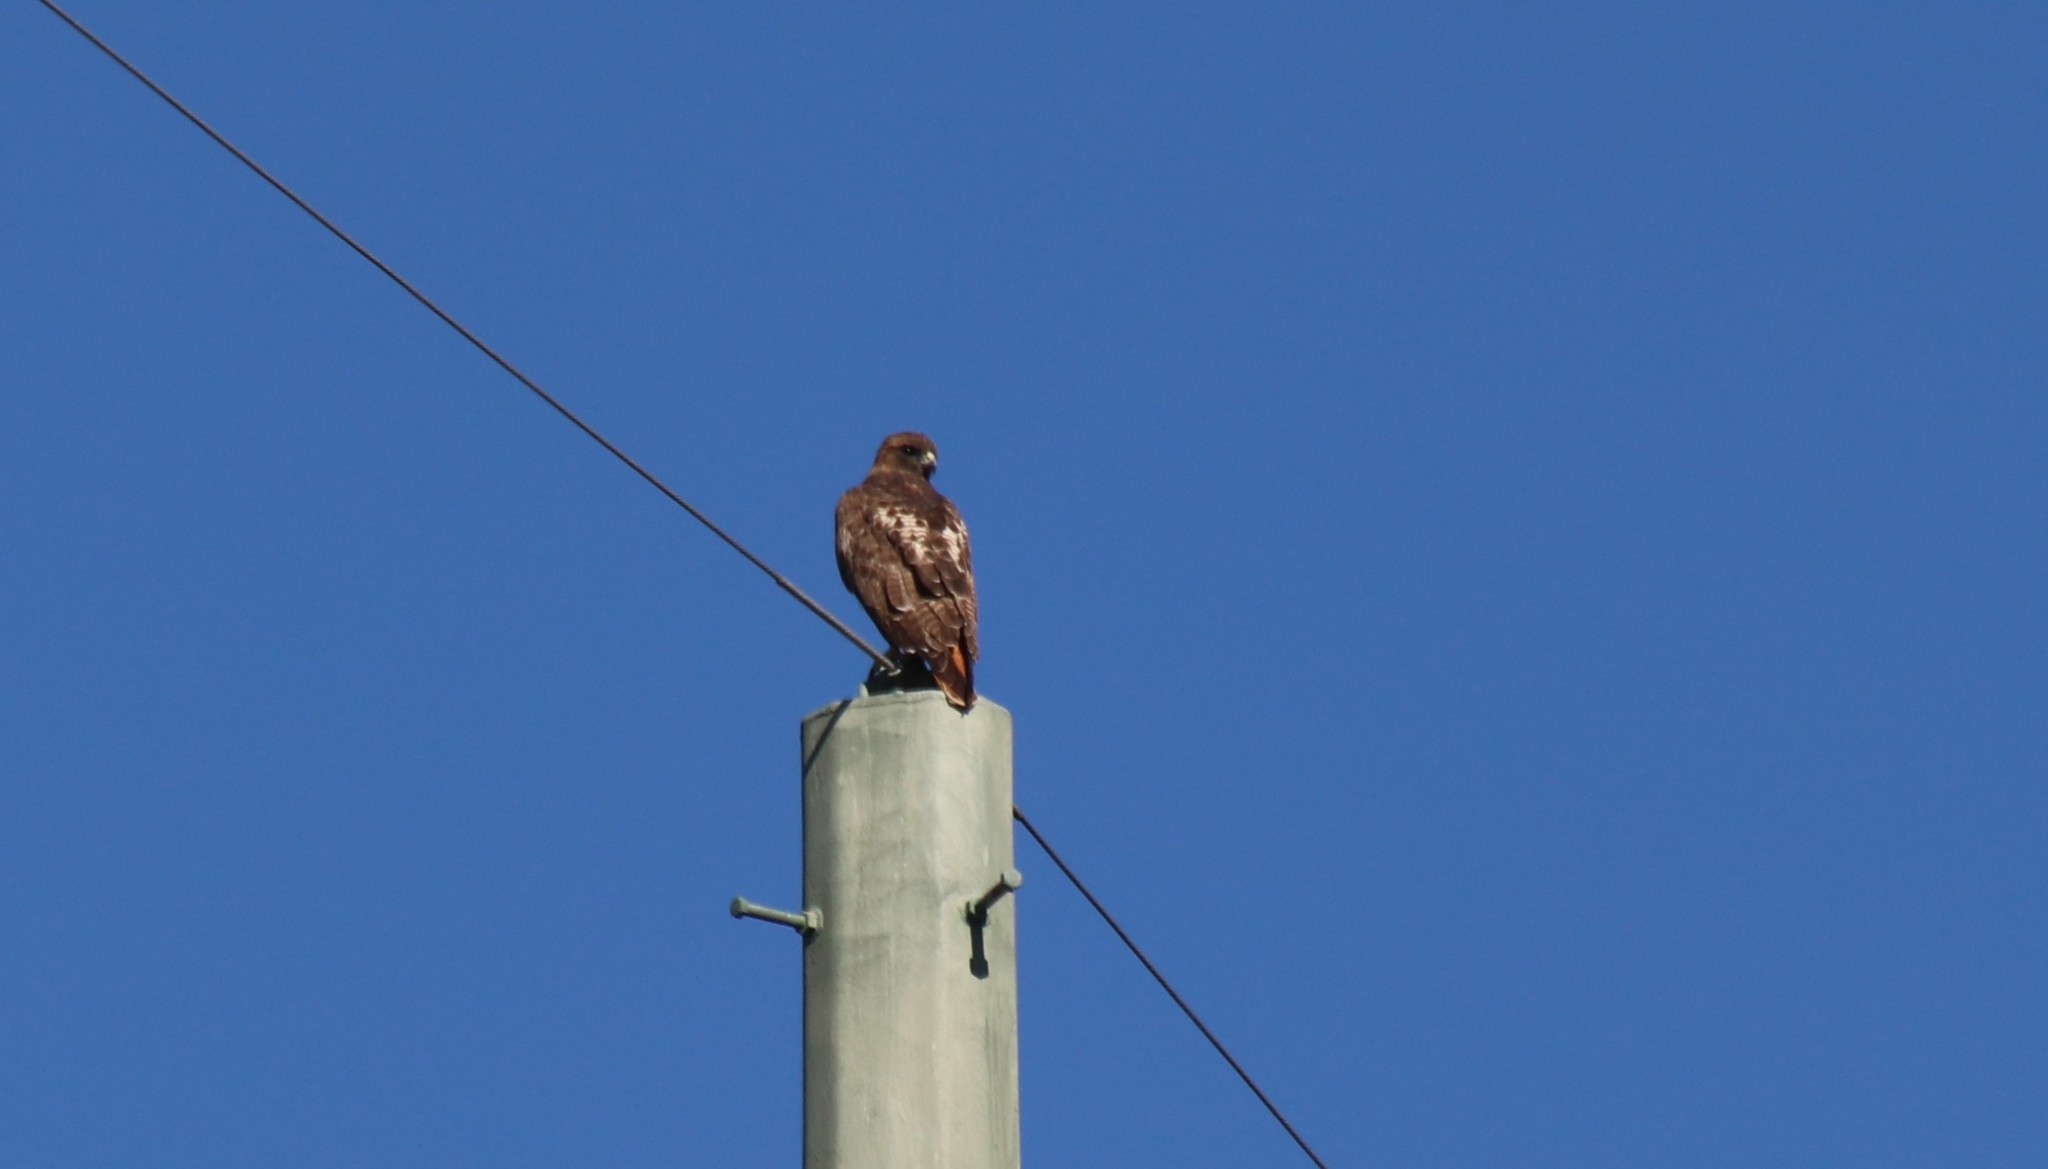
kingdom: Animalia
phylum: Chordata
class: Aves
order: Accipitriformes
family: Accipitridae
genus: Buteo
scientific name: Buteo jamaicensis
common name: Red-tailed hawk
